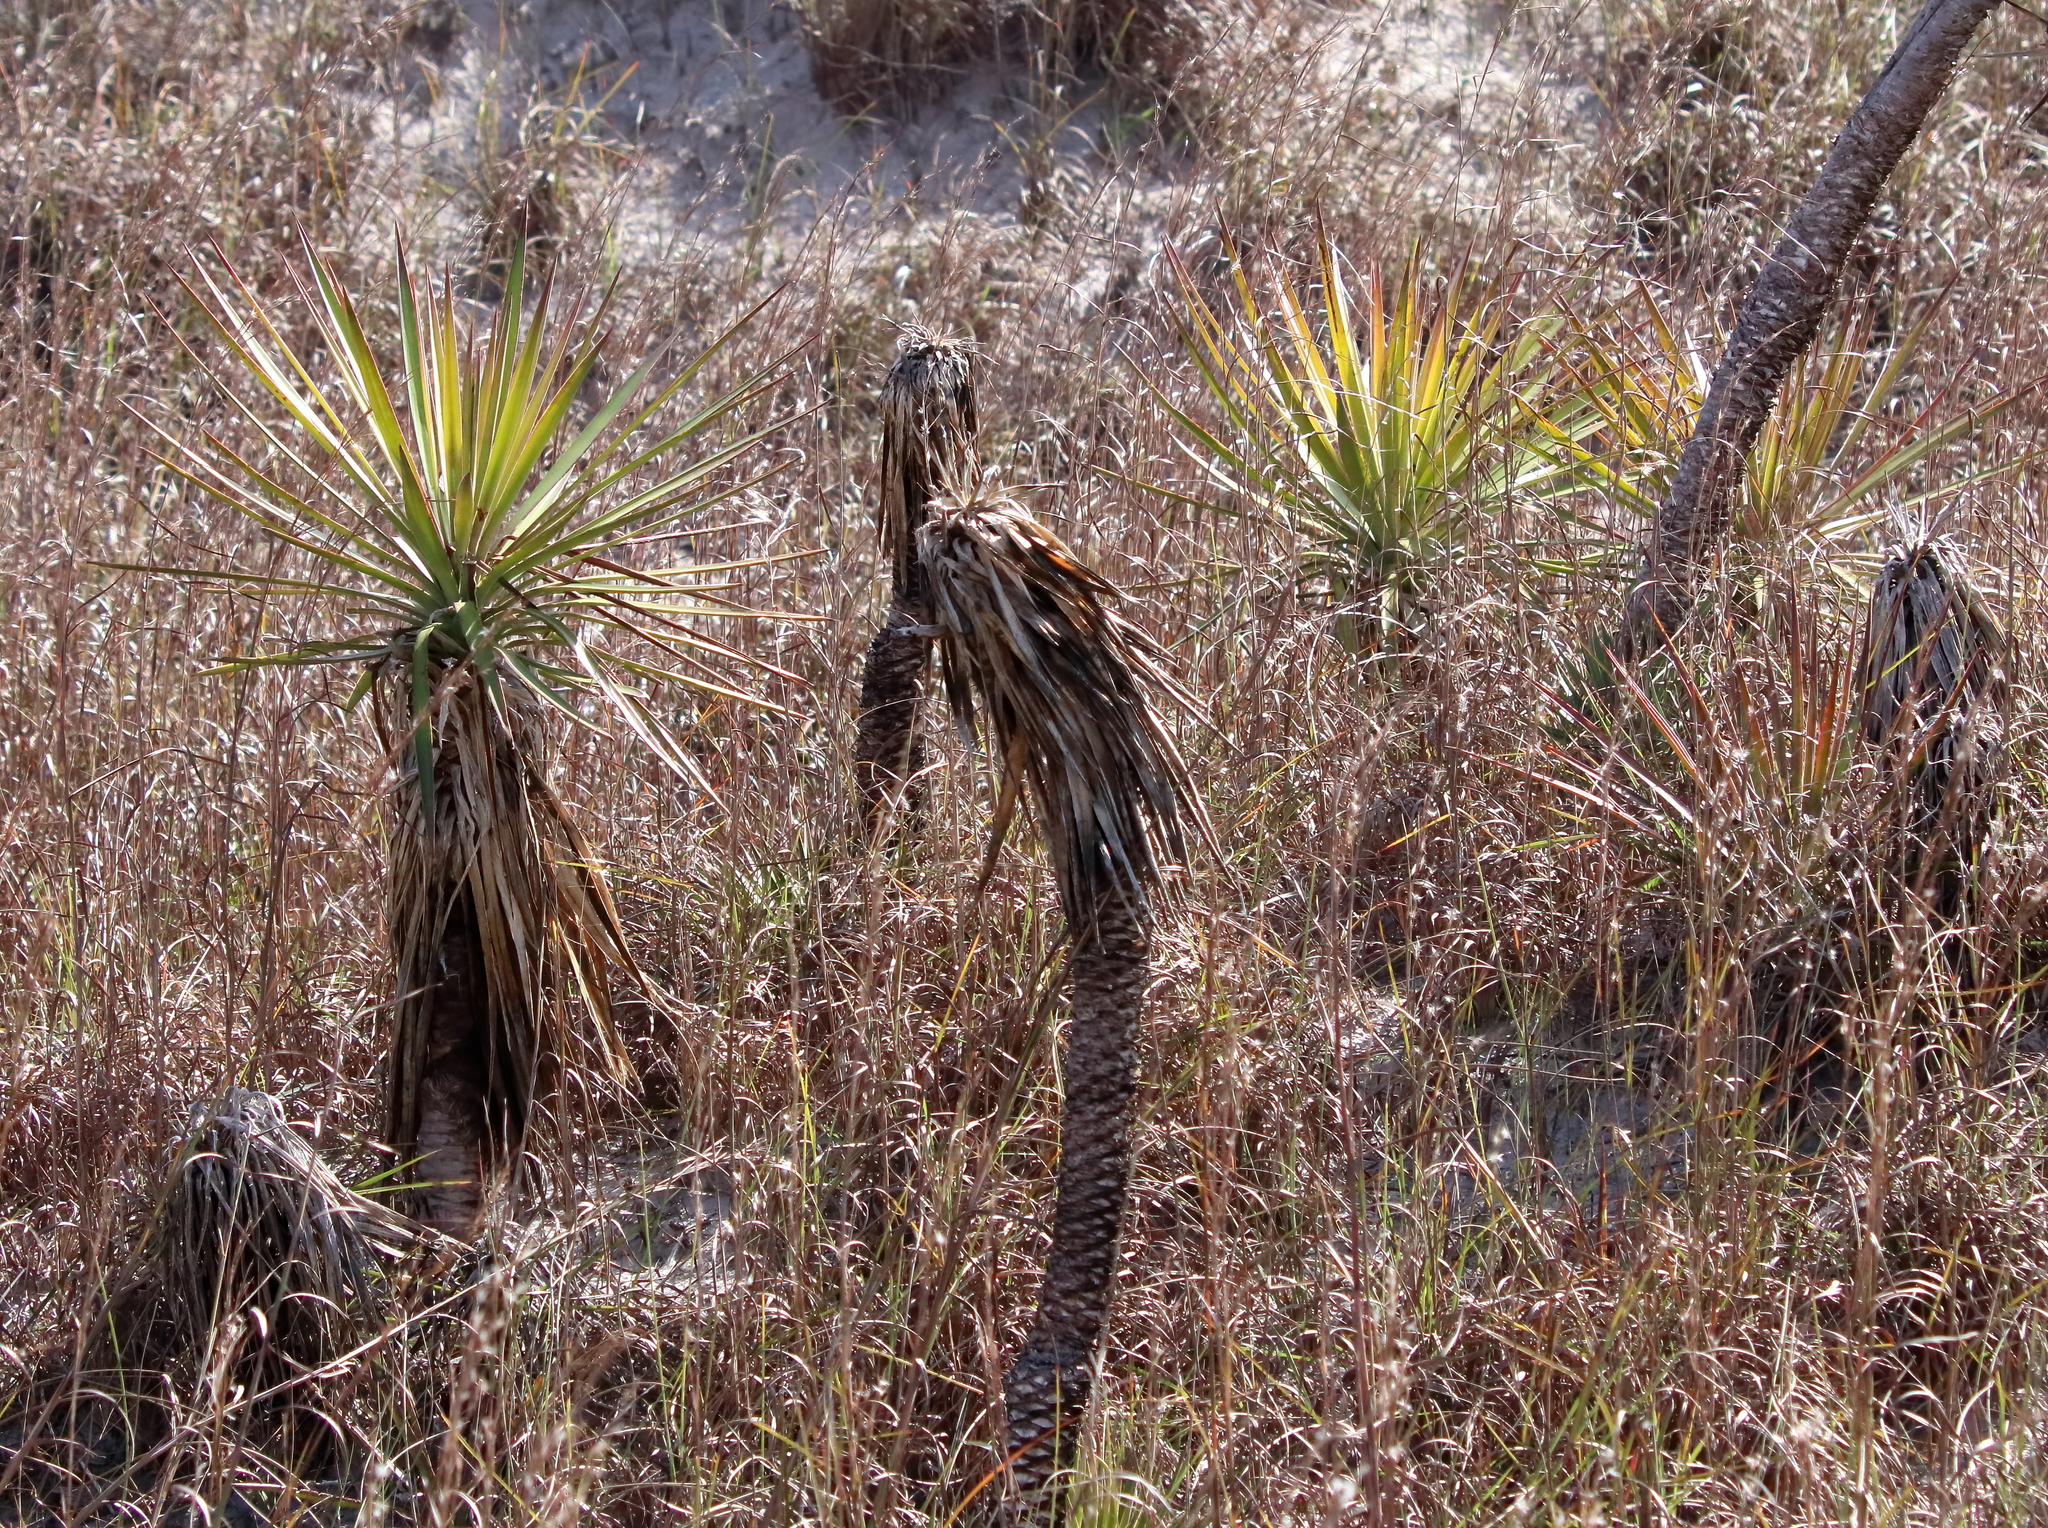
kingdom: Plantae
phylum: Tracheophyta
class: Liliopsida
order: Asparagales
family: Asparagaceae
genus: Yucca
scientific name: Yucca aloifolia
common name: Aloe yucca
